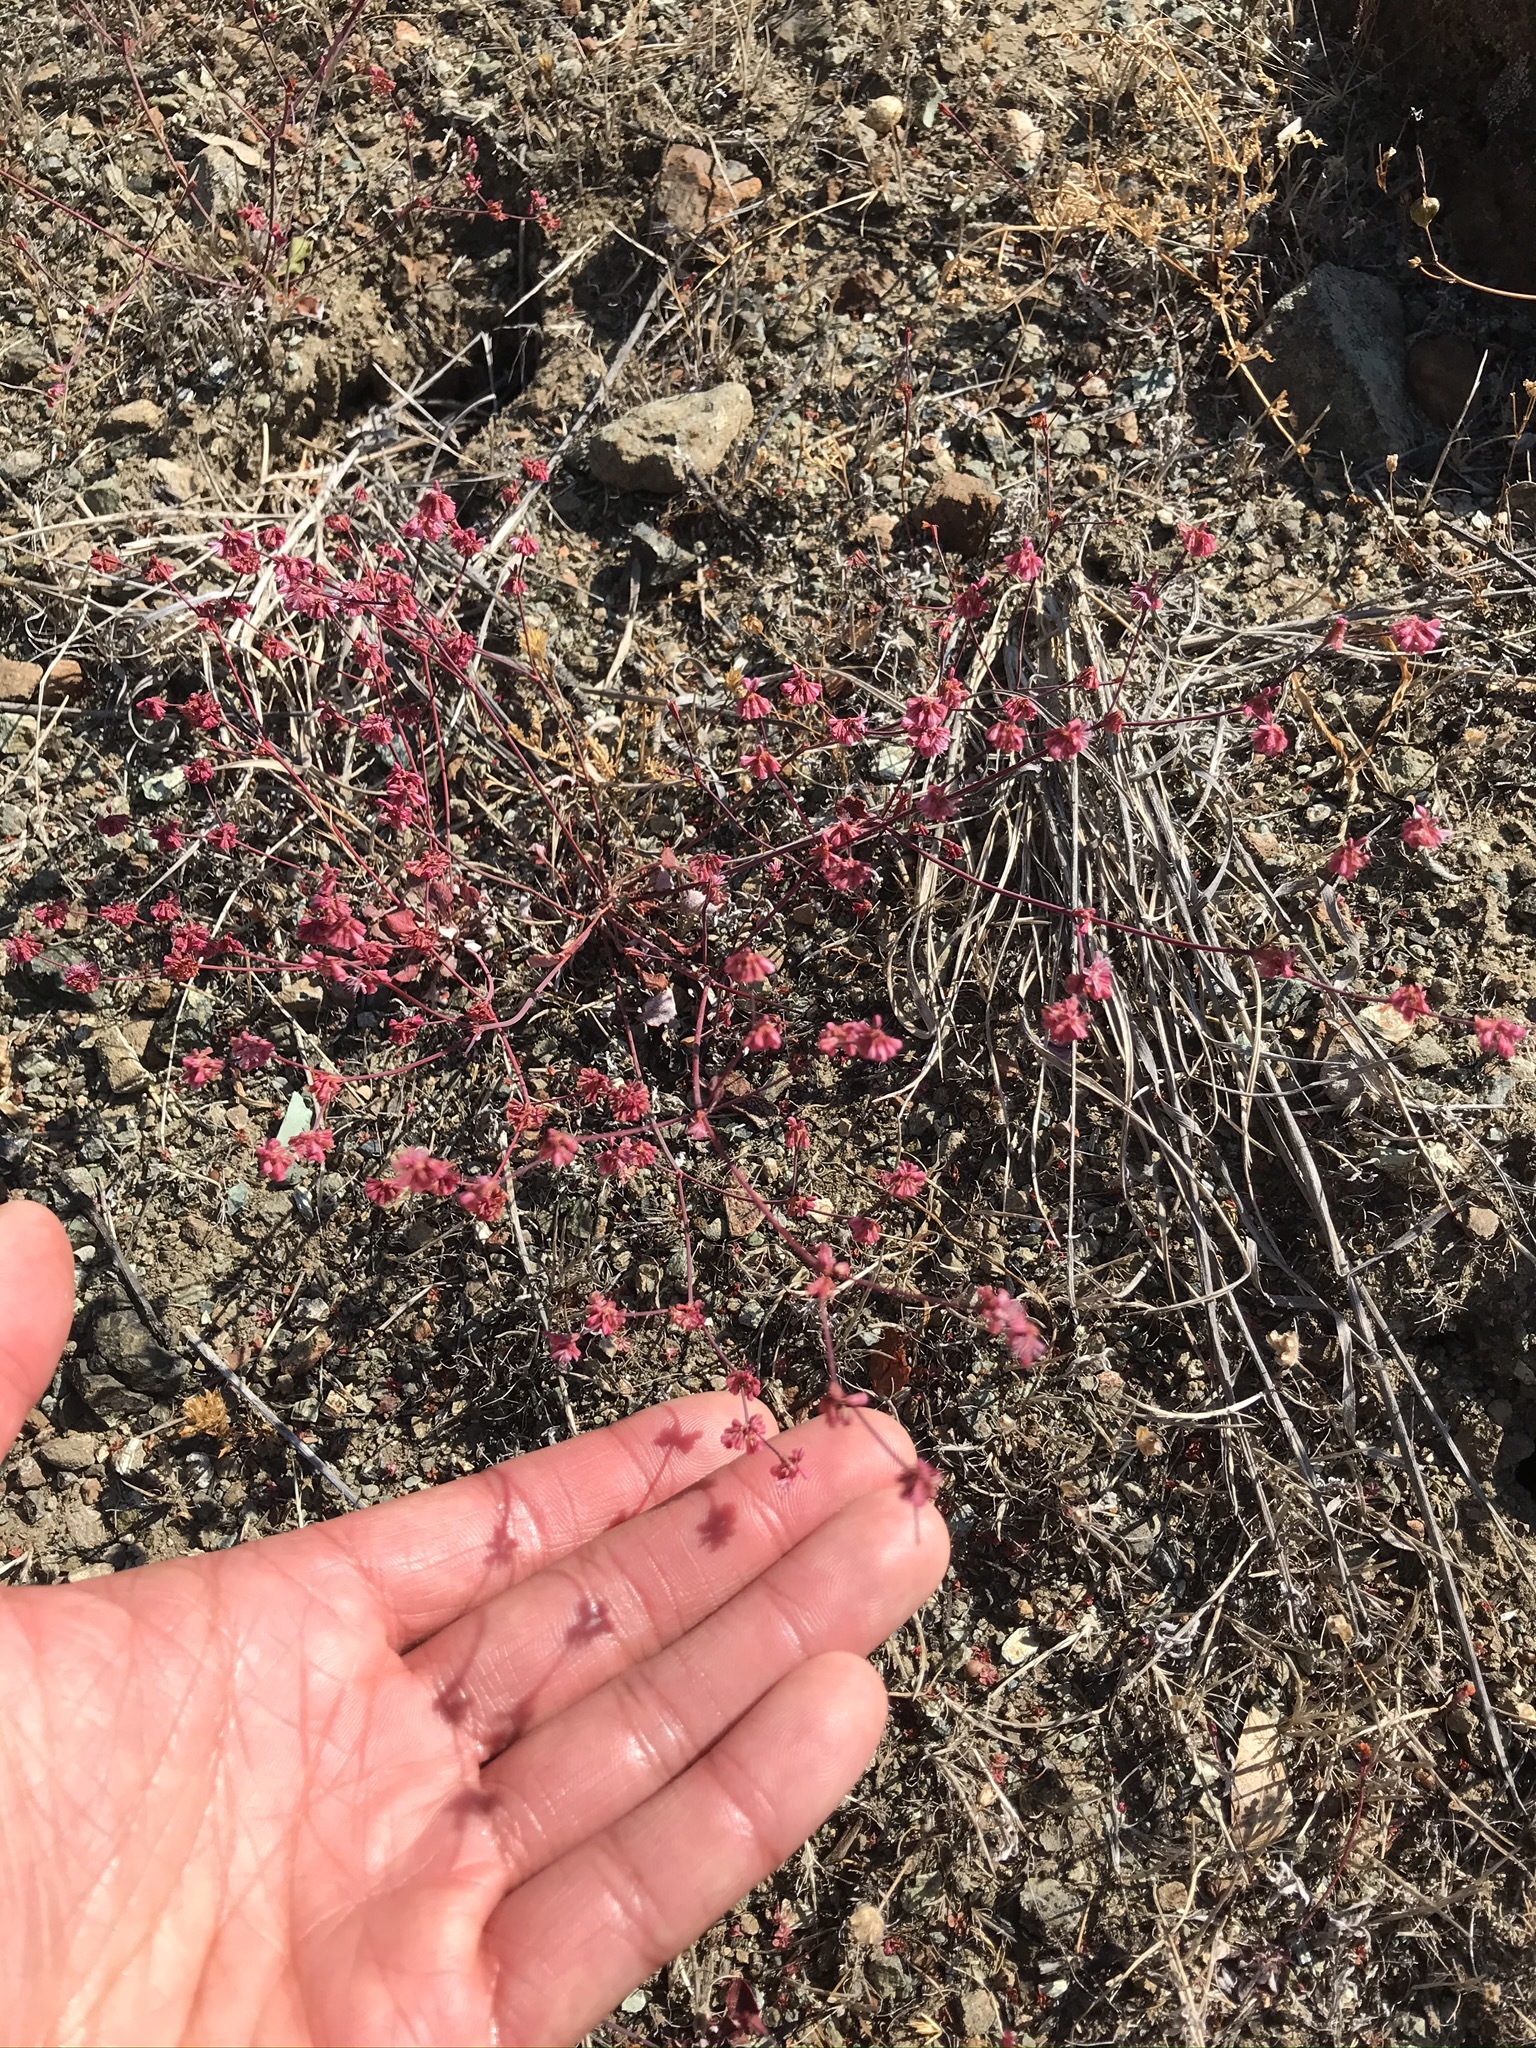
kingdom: Plantae
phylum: Tracheophyta
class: Magnoliopsida
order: Caryophyllales
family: Polygonaceae
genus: Eriogonum
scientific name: Eriogonum luteolum
